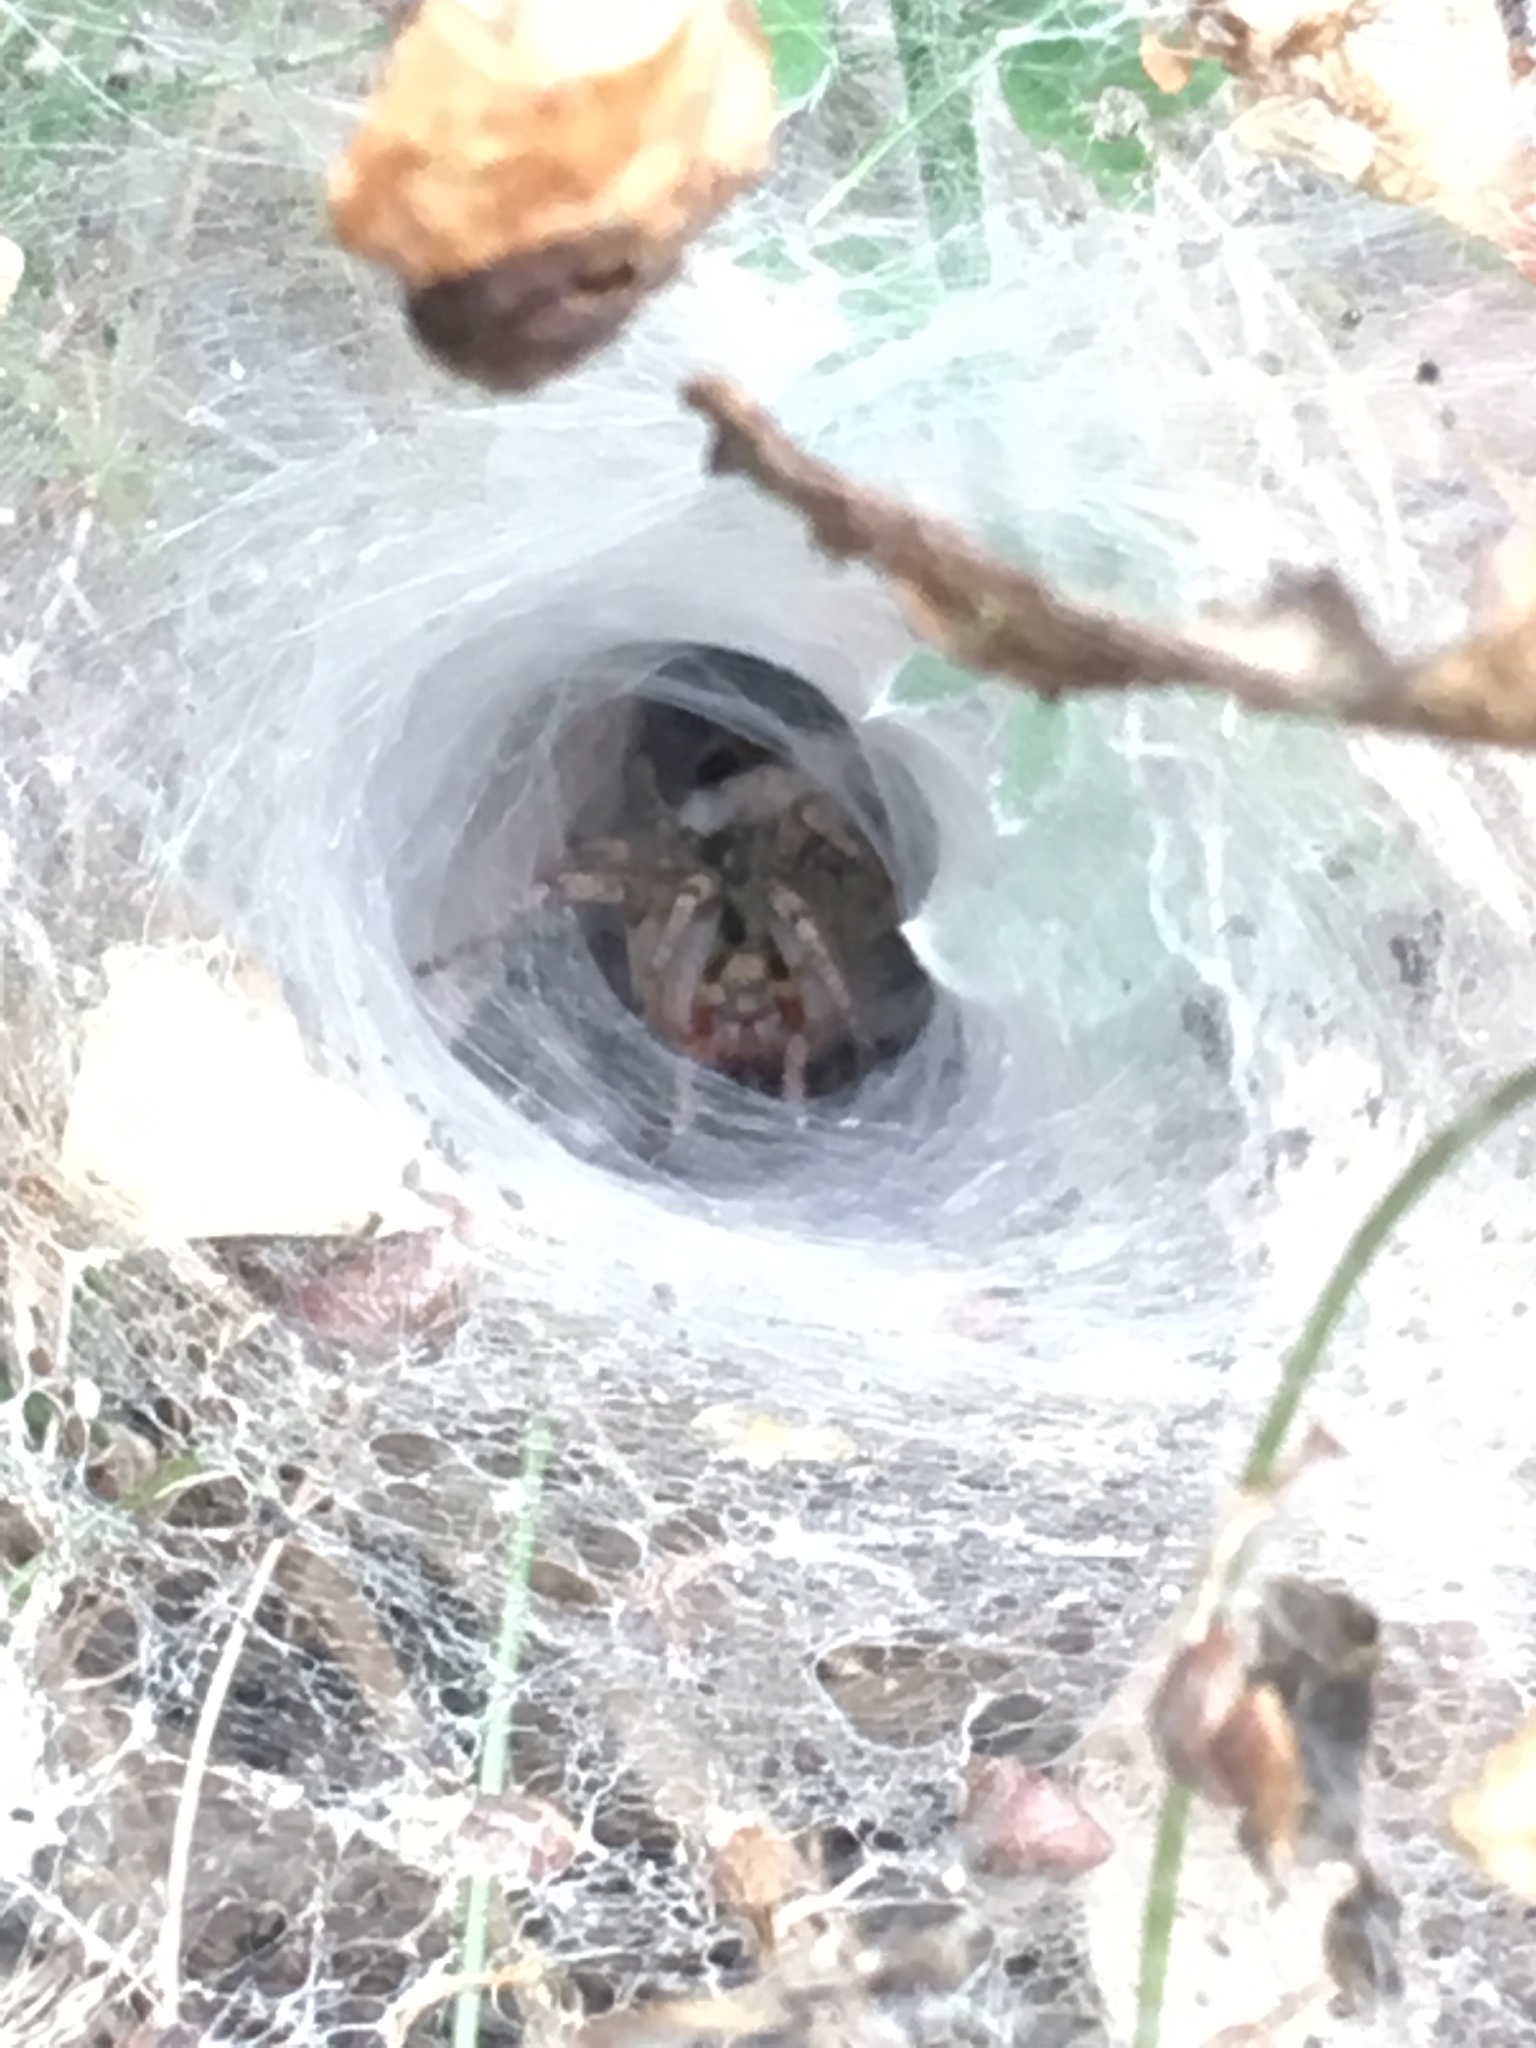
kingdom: Animalia
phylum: Arthropoda
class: Arachnida
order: Araneae
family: Agelenidae
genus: Agelena
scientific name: Agelena labyrinthica
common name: Labyrinth spider
